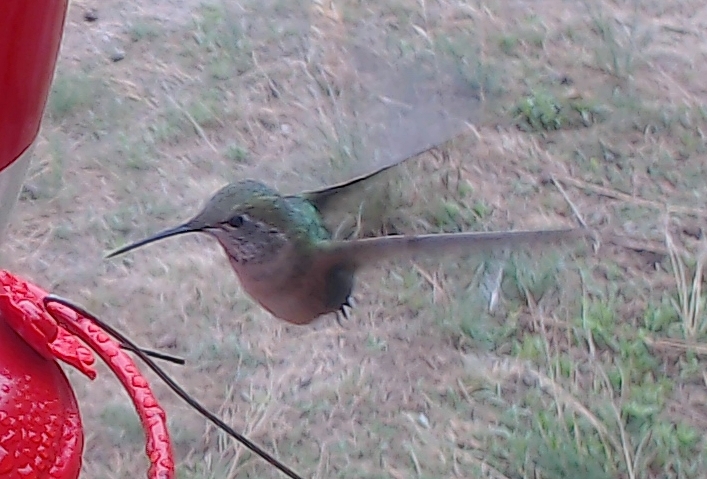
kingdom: Animalia
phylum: Chordata
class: Aves
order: Apodiformes
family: Trochilidae
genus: Selasphorus
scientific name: Selasphorus platycercus
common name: Broad-tailed hummingbird
